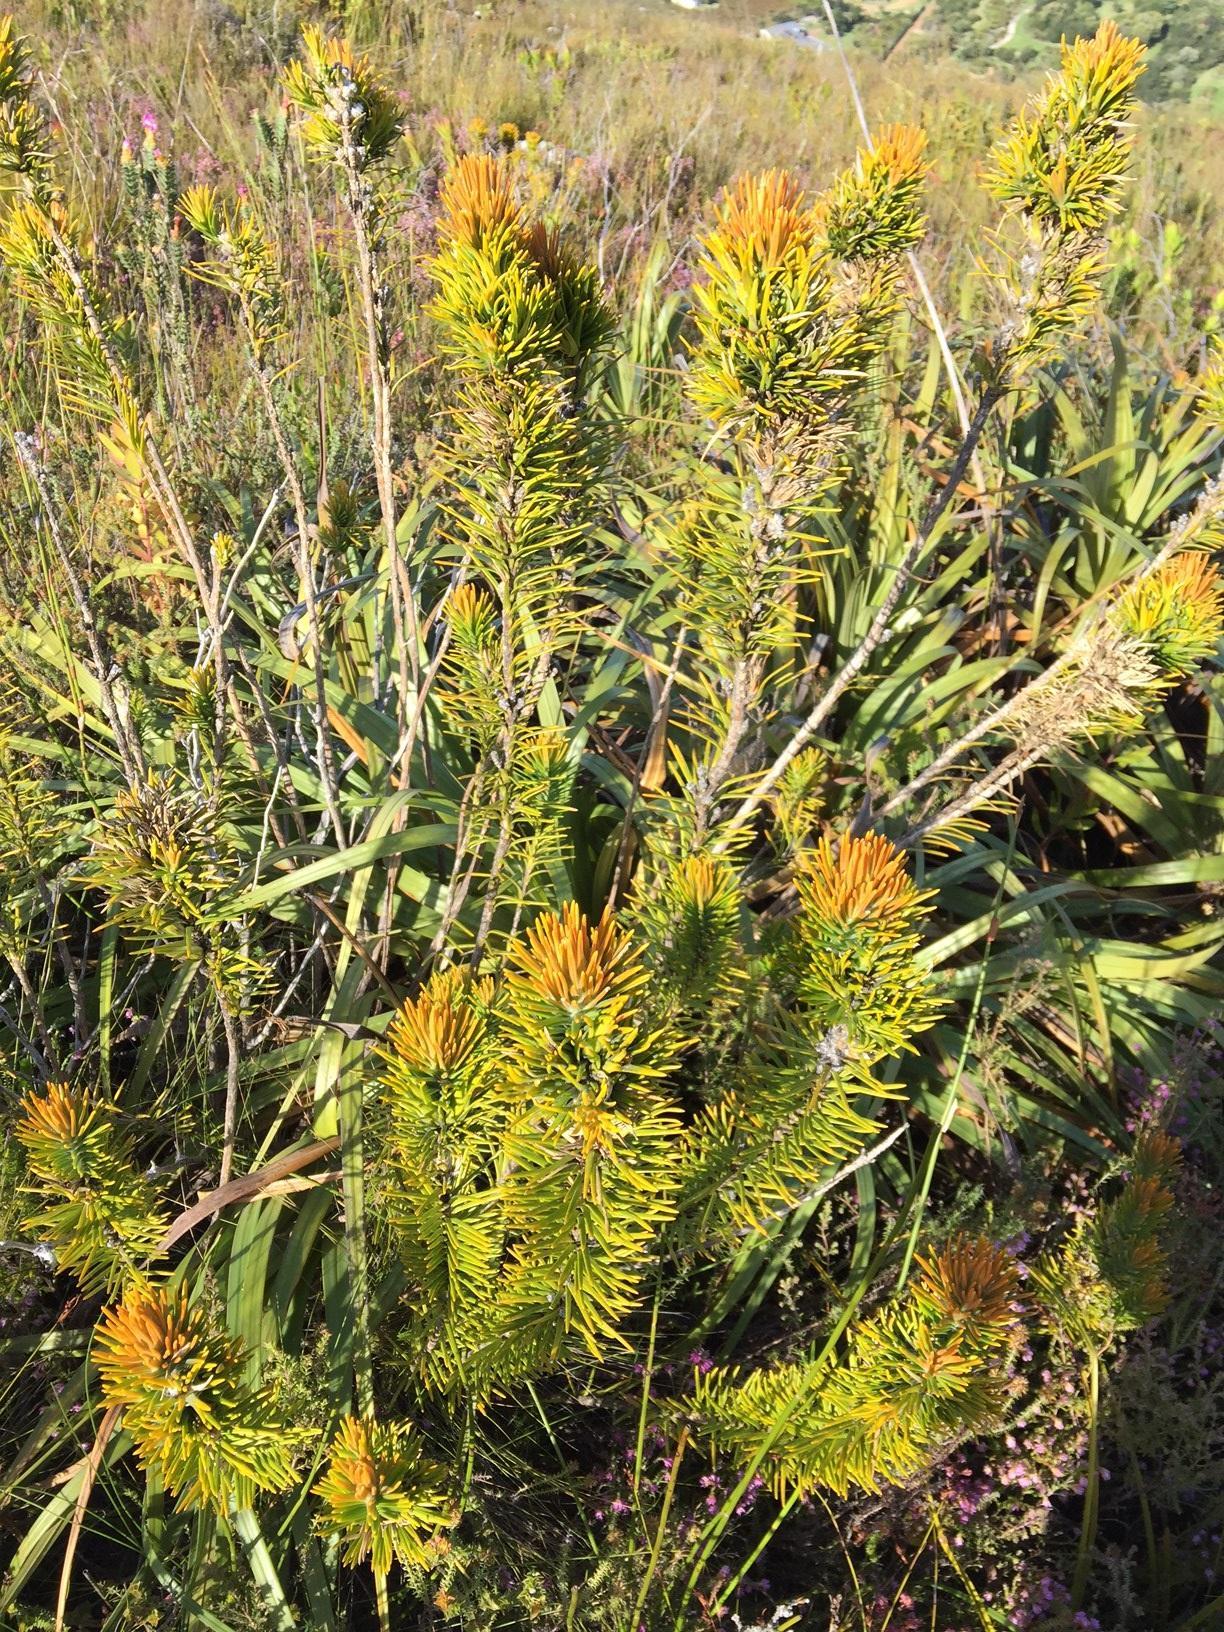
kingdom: Plantae
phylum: Tracheophyta
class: Magnoliopsida
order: Lamiales
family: Stilbaceae
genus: Retzia
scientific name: Retzia capensis
